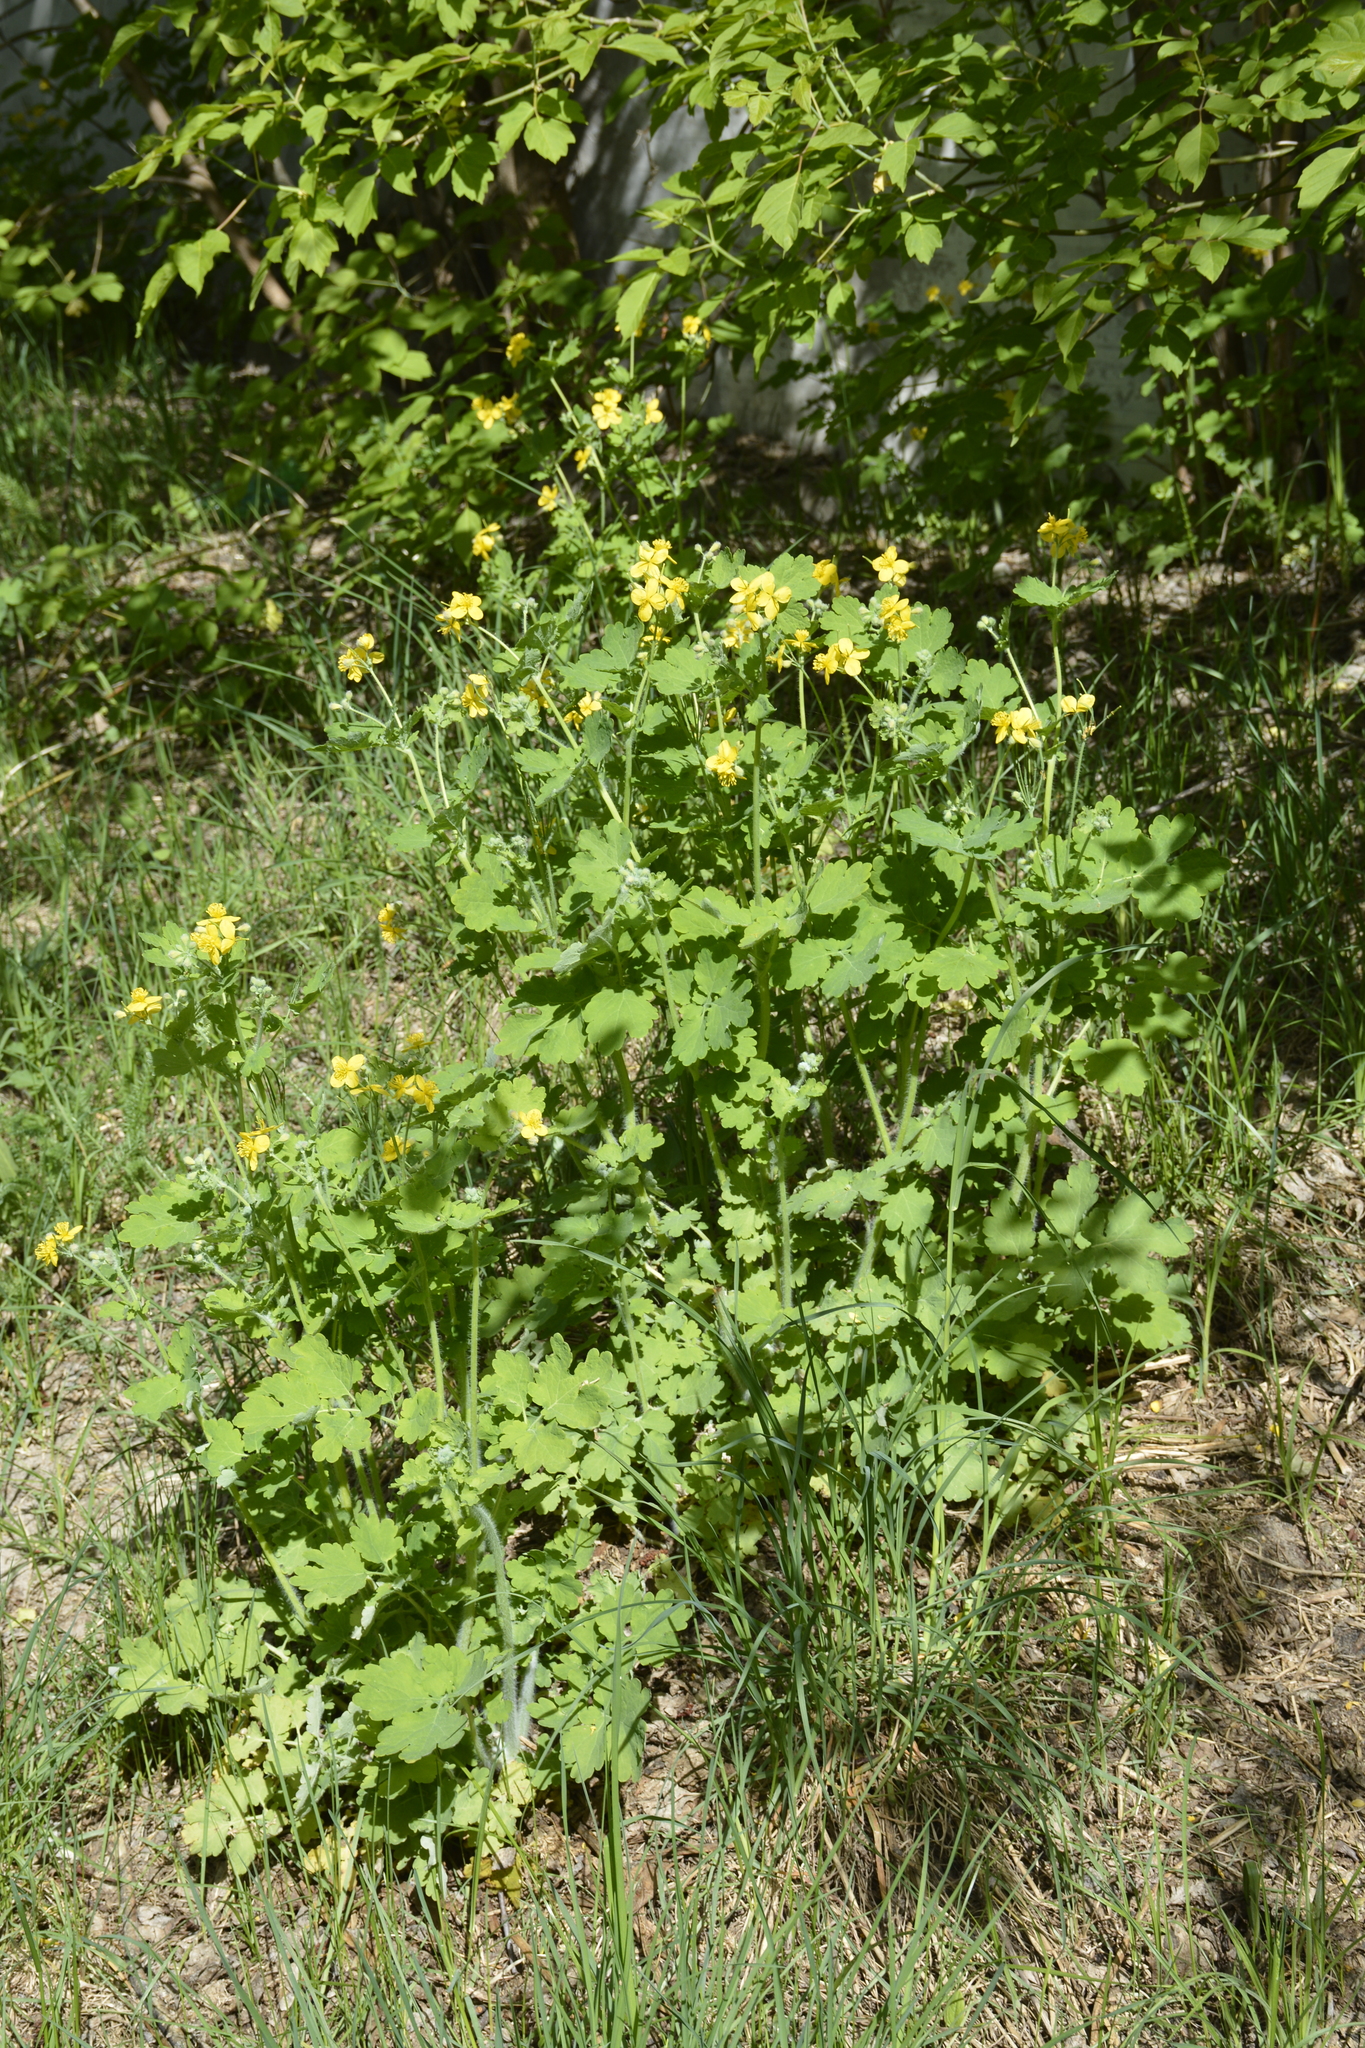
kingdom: Plantae
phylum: Tracheophyta
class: Magnoliopsida
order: Ranunculales
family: Papaveraceae
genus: Chelidonium
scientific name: Chelidonium majus
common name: Greater celandine
